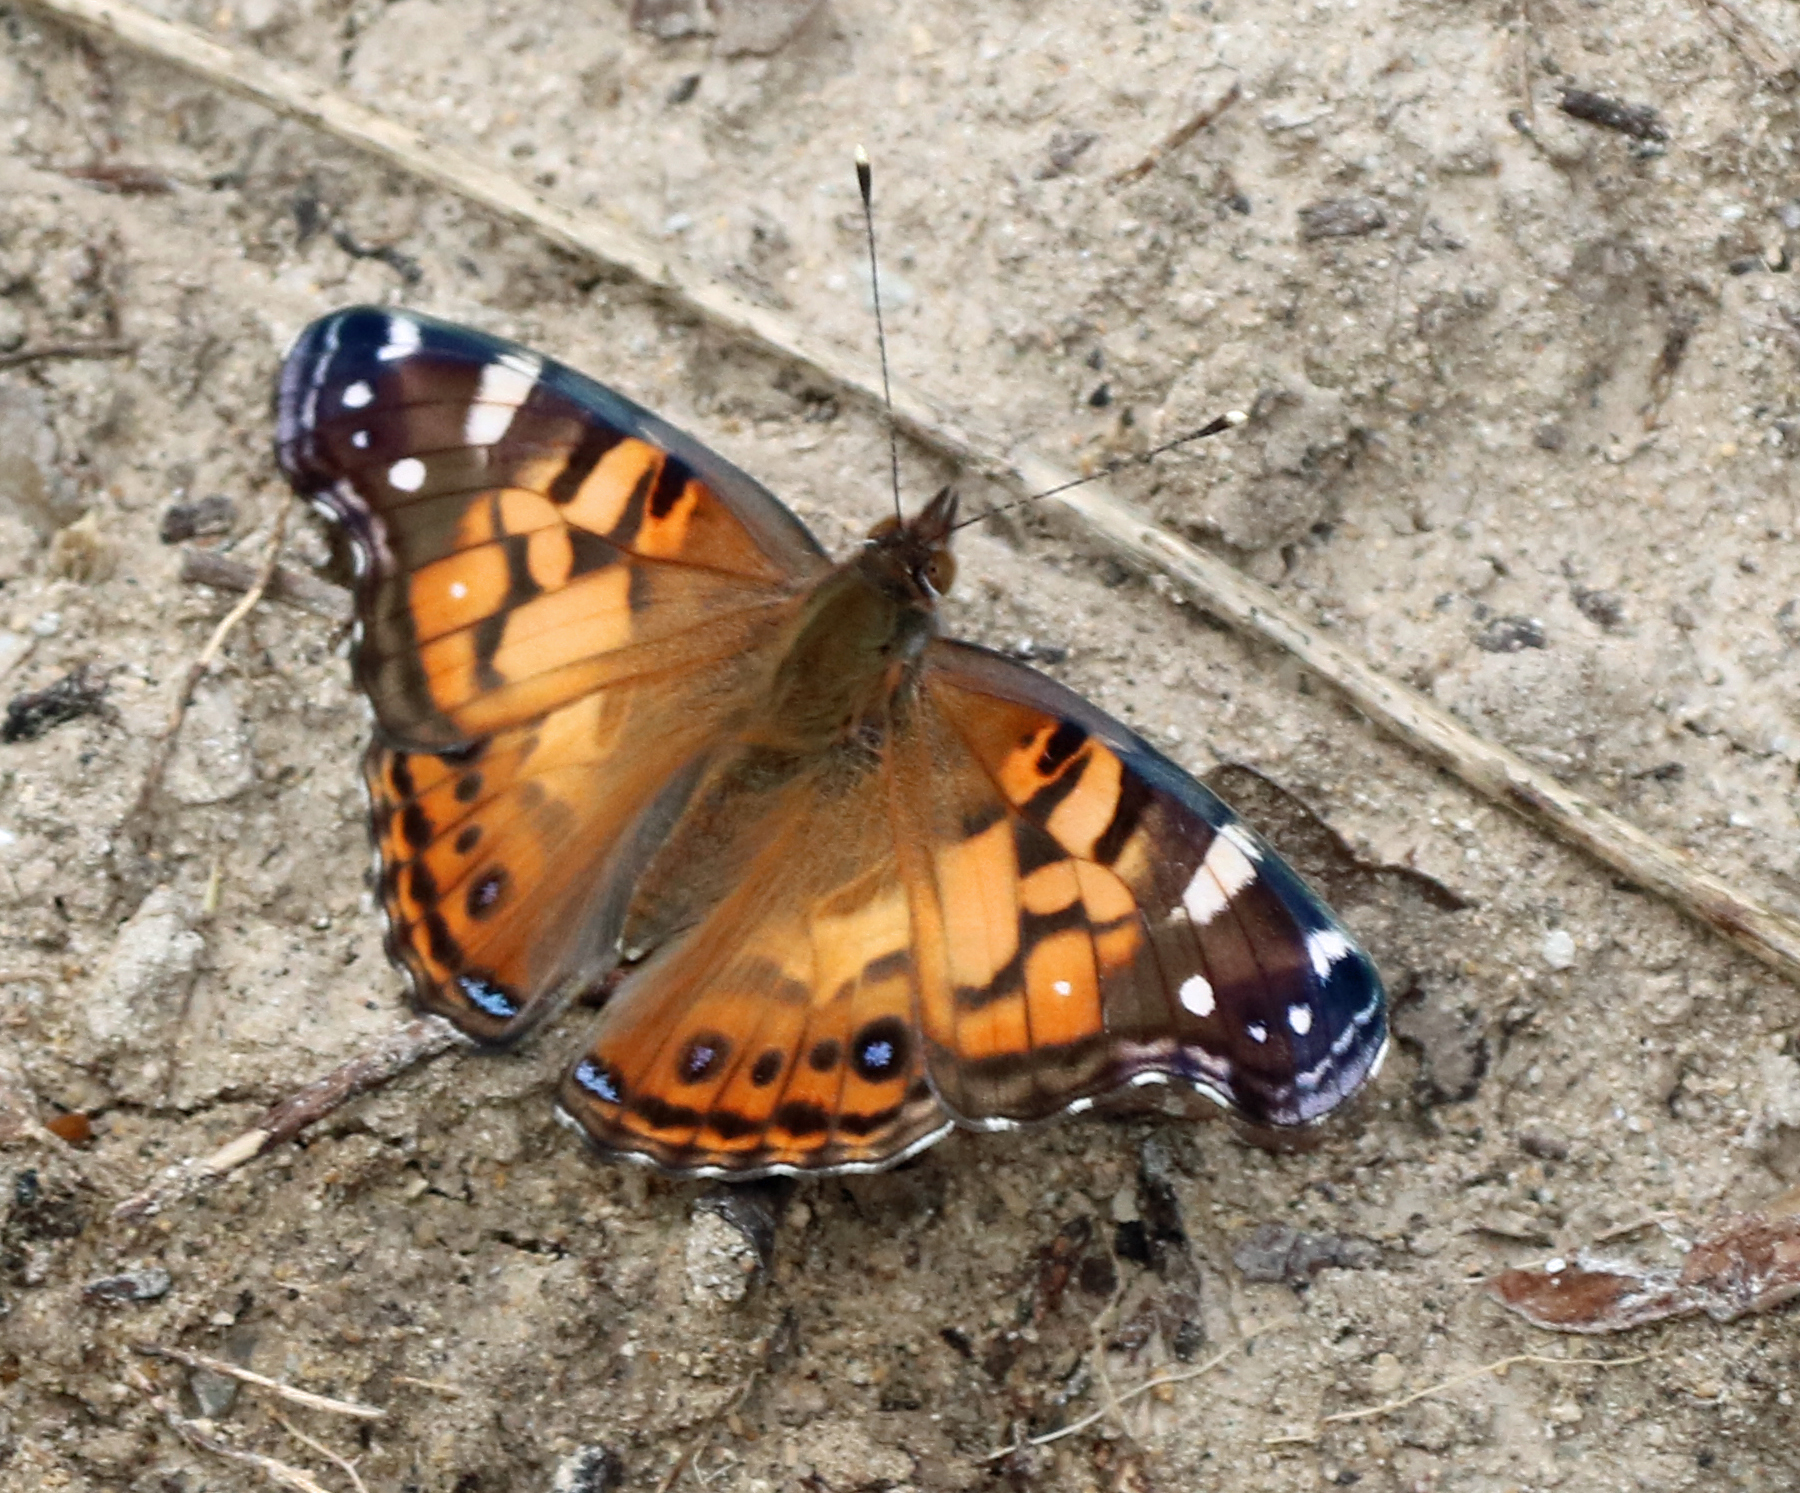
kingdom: Animalia
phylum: Arthropoda
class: Insecta
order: Lepidoptera
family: Nymphalidae
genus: Vanessa
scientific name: Vanessa virginiensis
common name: American lady
